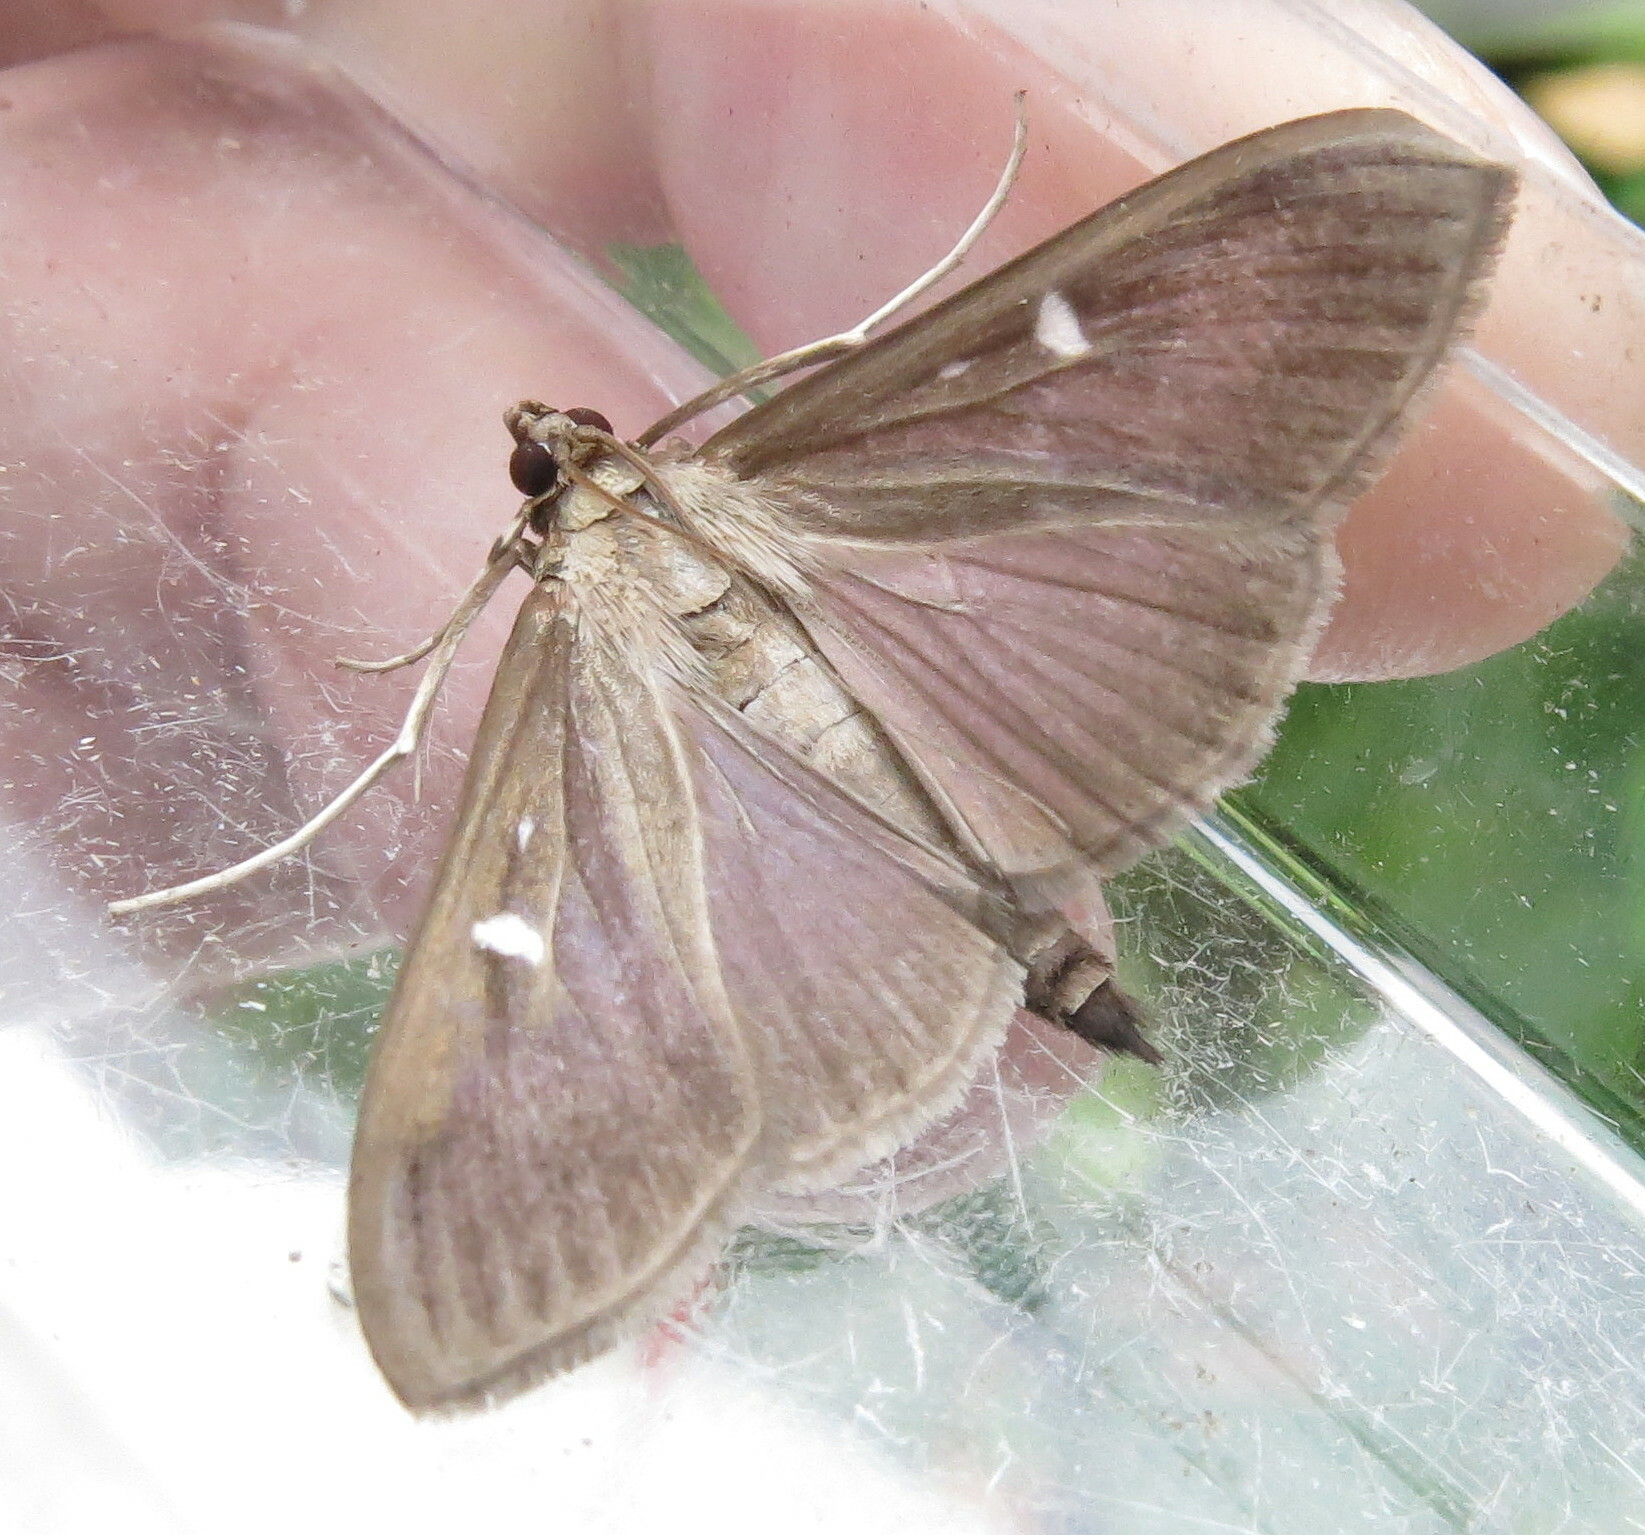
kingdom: Animalia
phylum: Arthropoda
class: Insecta
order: Lepidoptera
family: Crambidae
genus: Cydalima
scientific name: Cydalima perspectalis
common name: Box tree moth
